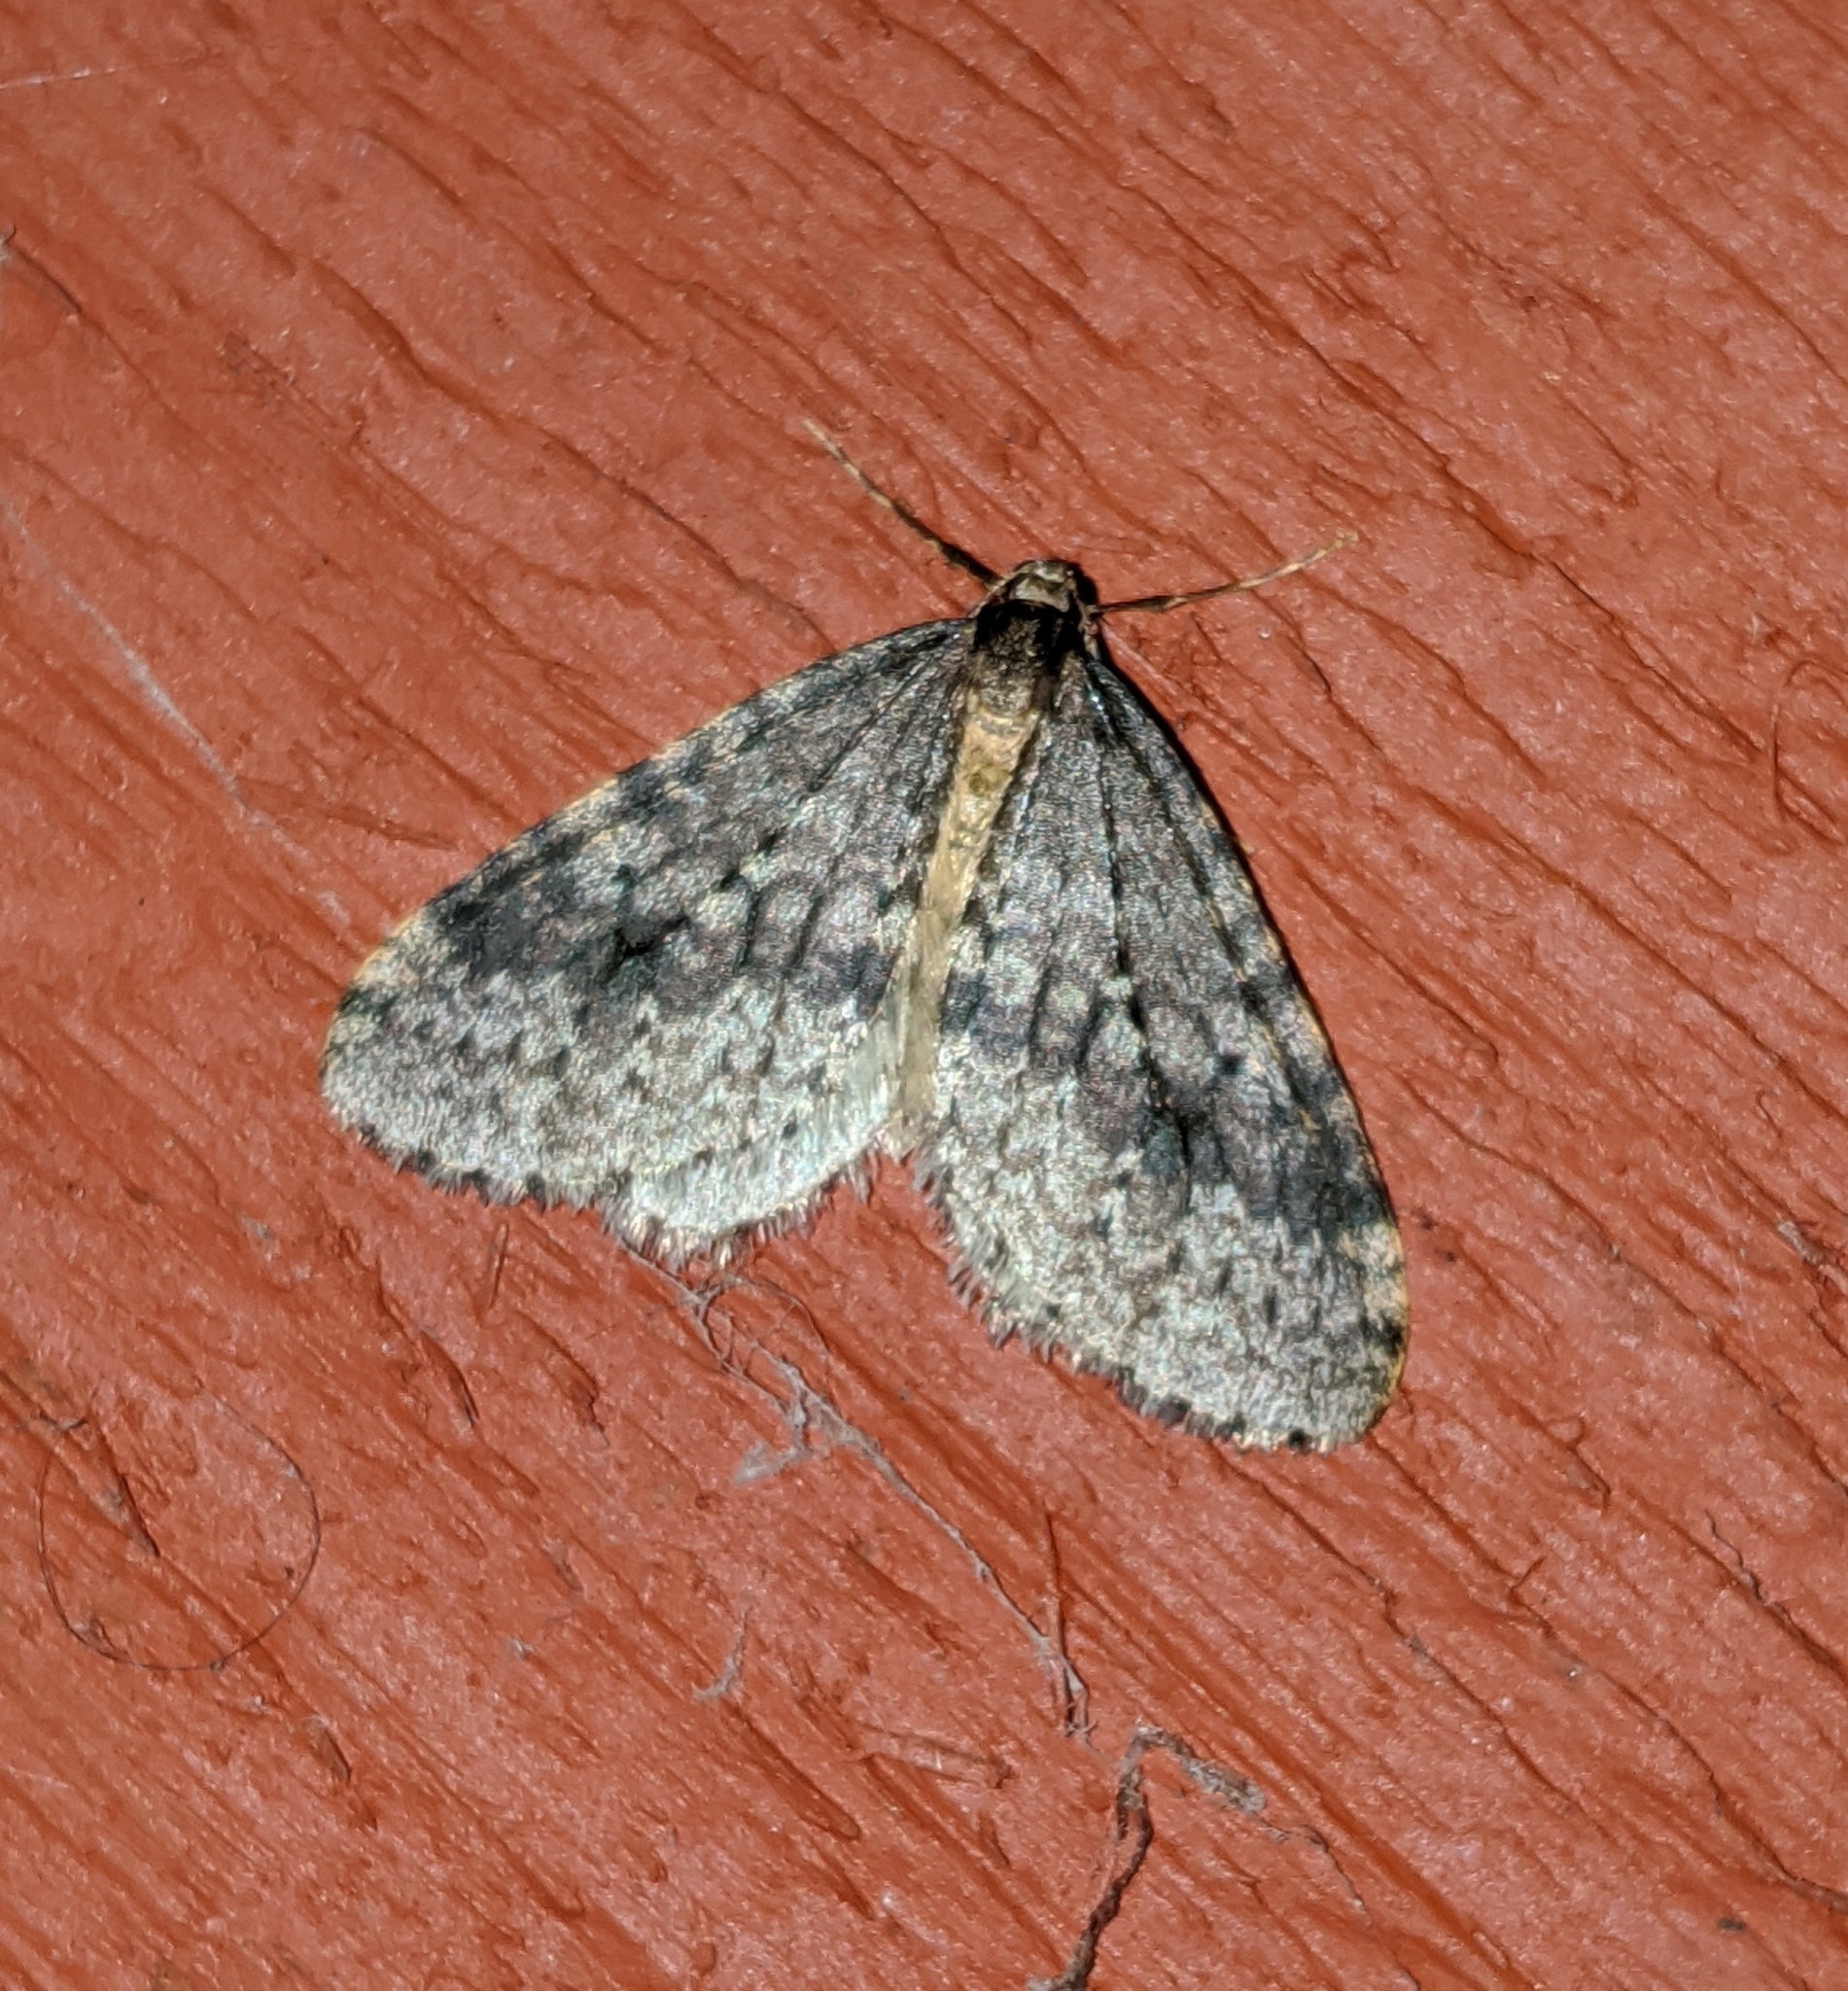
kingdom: Animalia
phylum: Arthropoda
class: Insecta
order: Lepidoptera
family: Geometridae
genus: Operophtera
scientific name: Operophtera occidentalis
